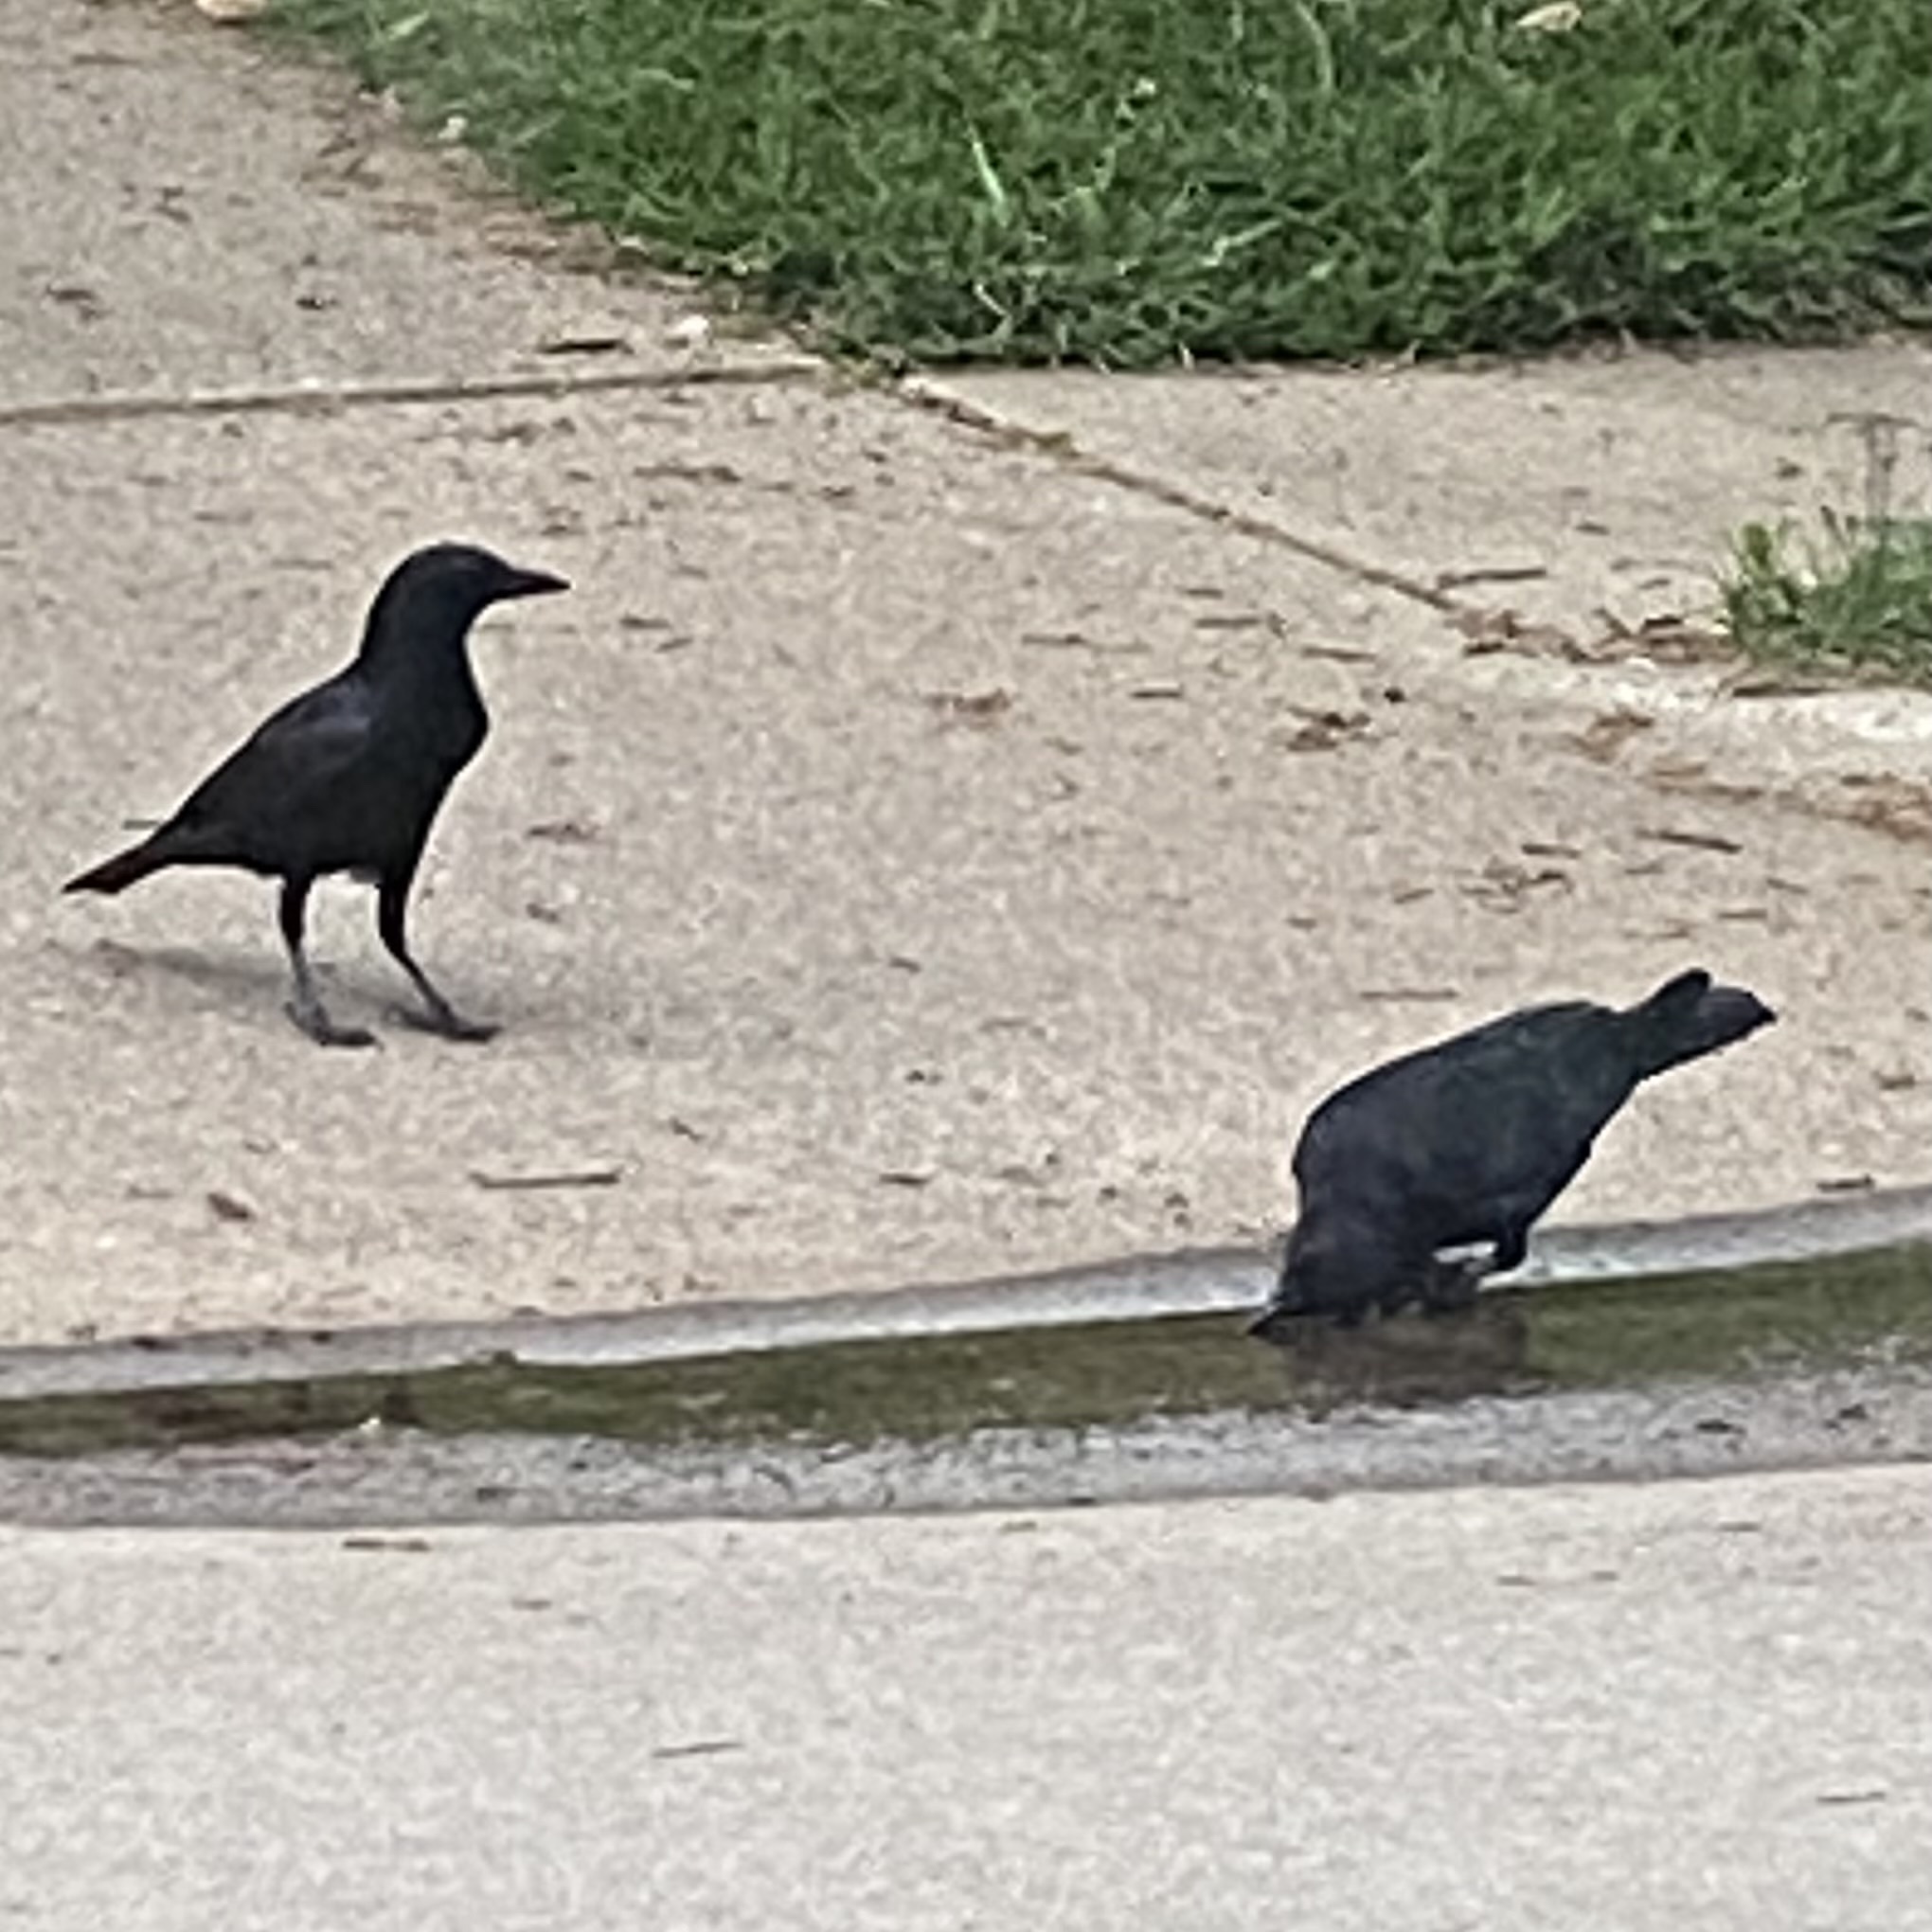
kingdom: Animalia
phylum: Chordata
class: Aves
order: Passeriformes
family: Corvidae
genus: Corvus
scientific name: Corvus brachyrhynchos
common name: American crow
